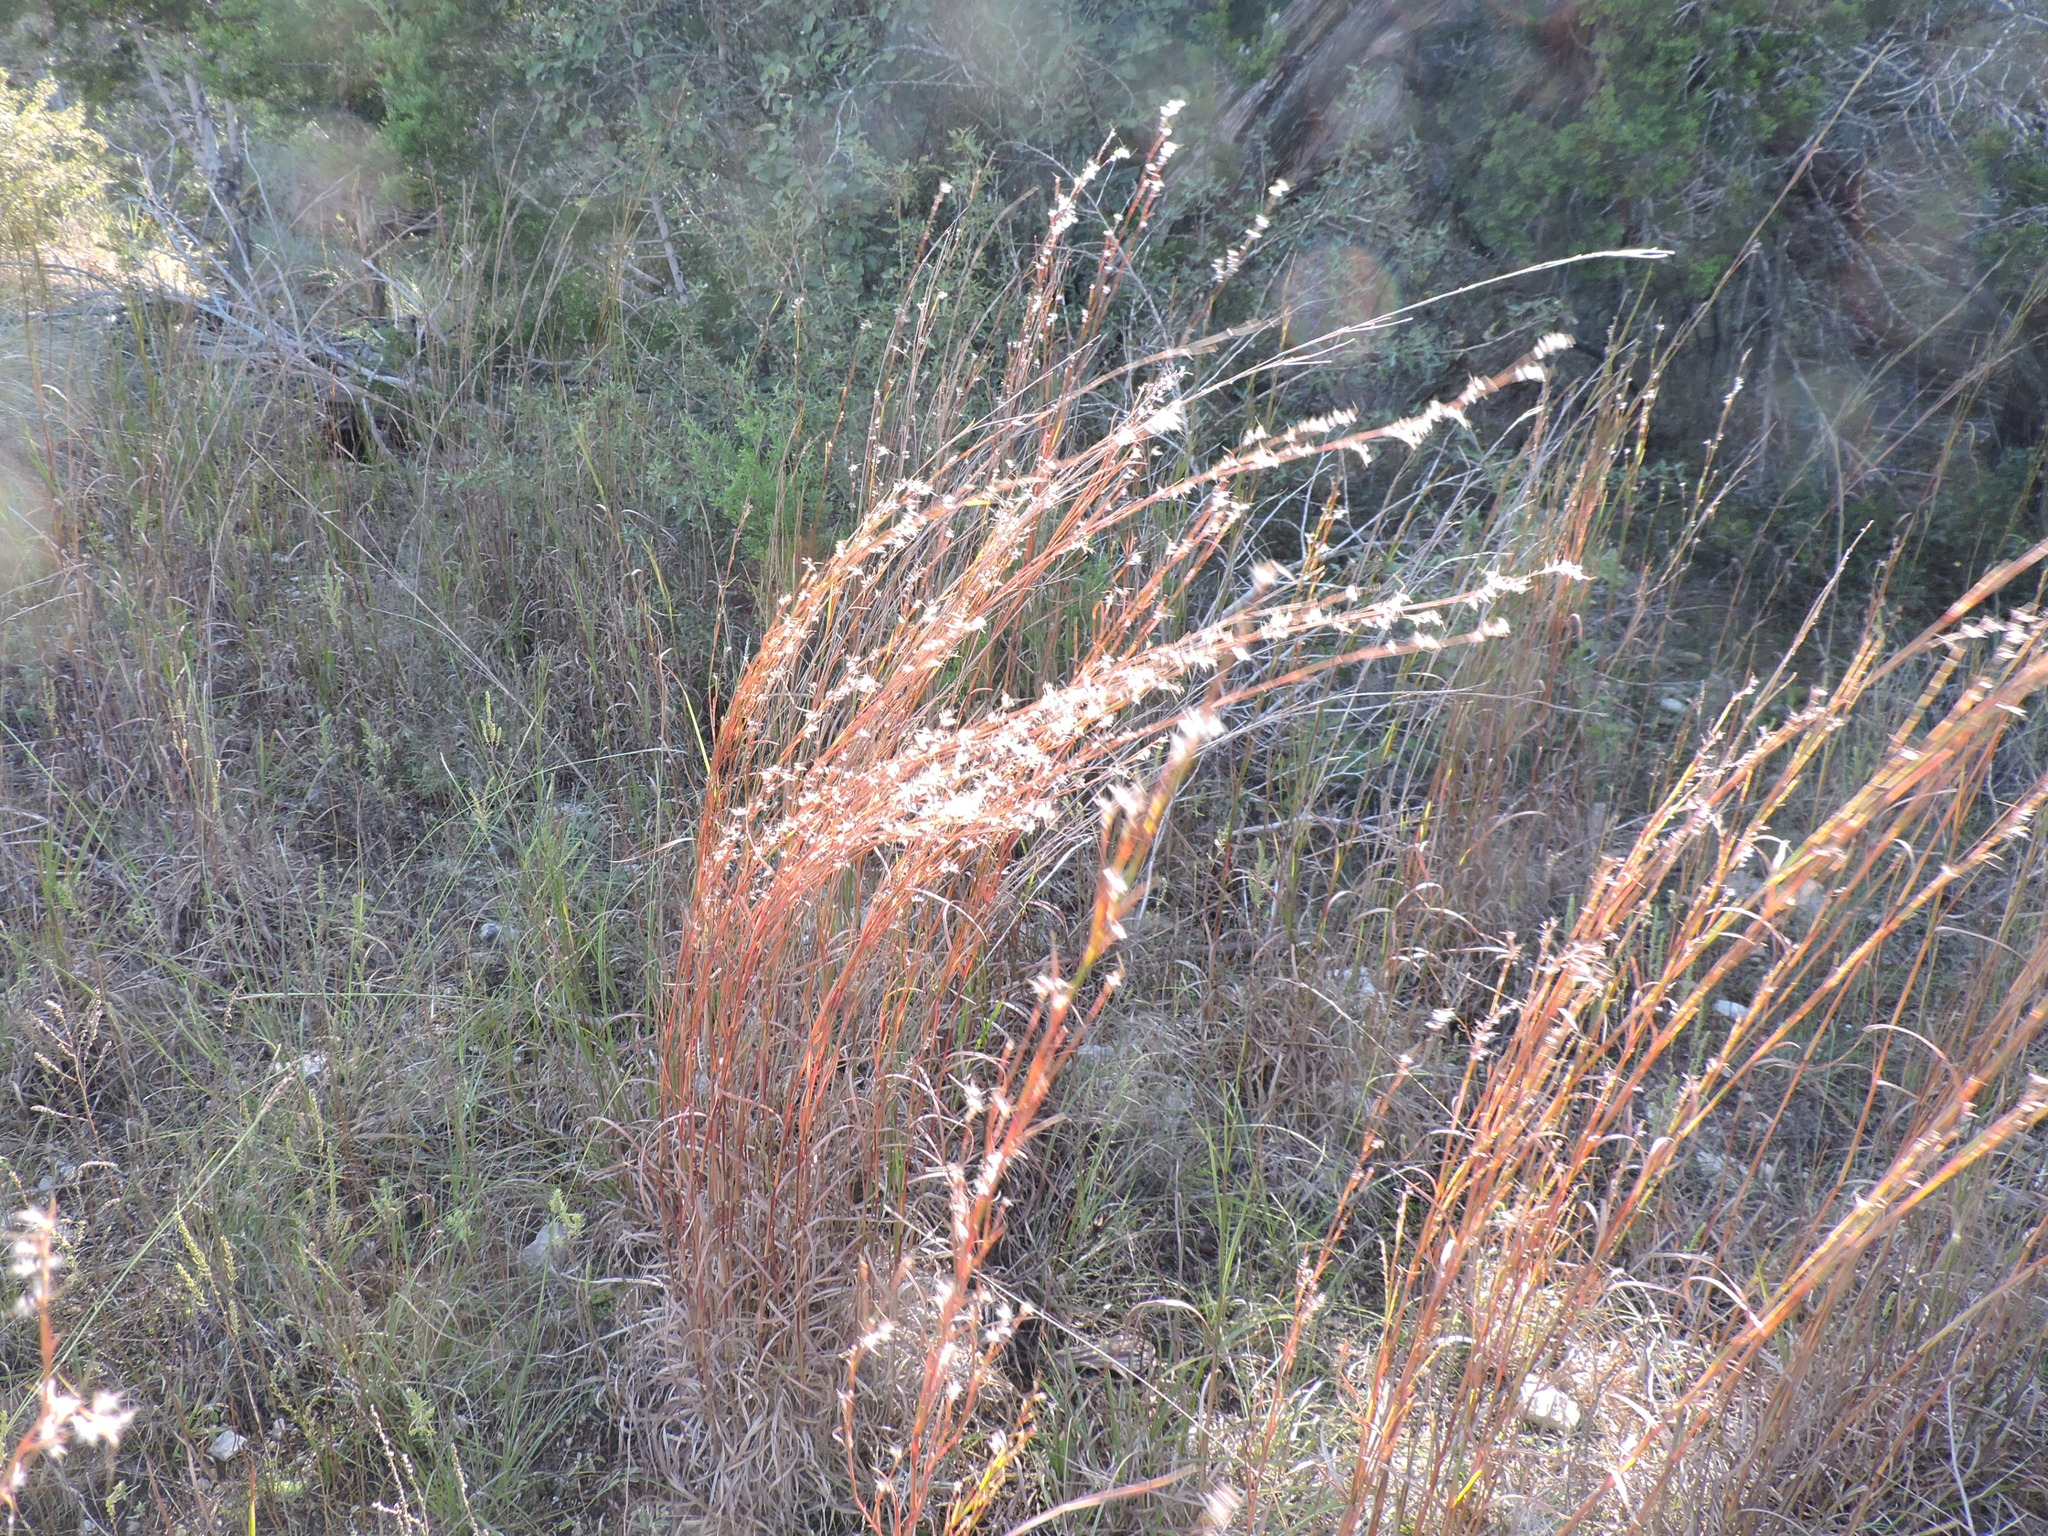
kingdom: Plantae
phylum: Tracheophyta
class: Liliopsida
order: Poales
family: Poaceae
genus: Schizachyrium
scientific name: Schizachyrium scoparium
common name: Little bluestem
